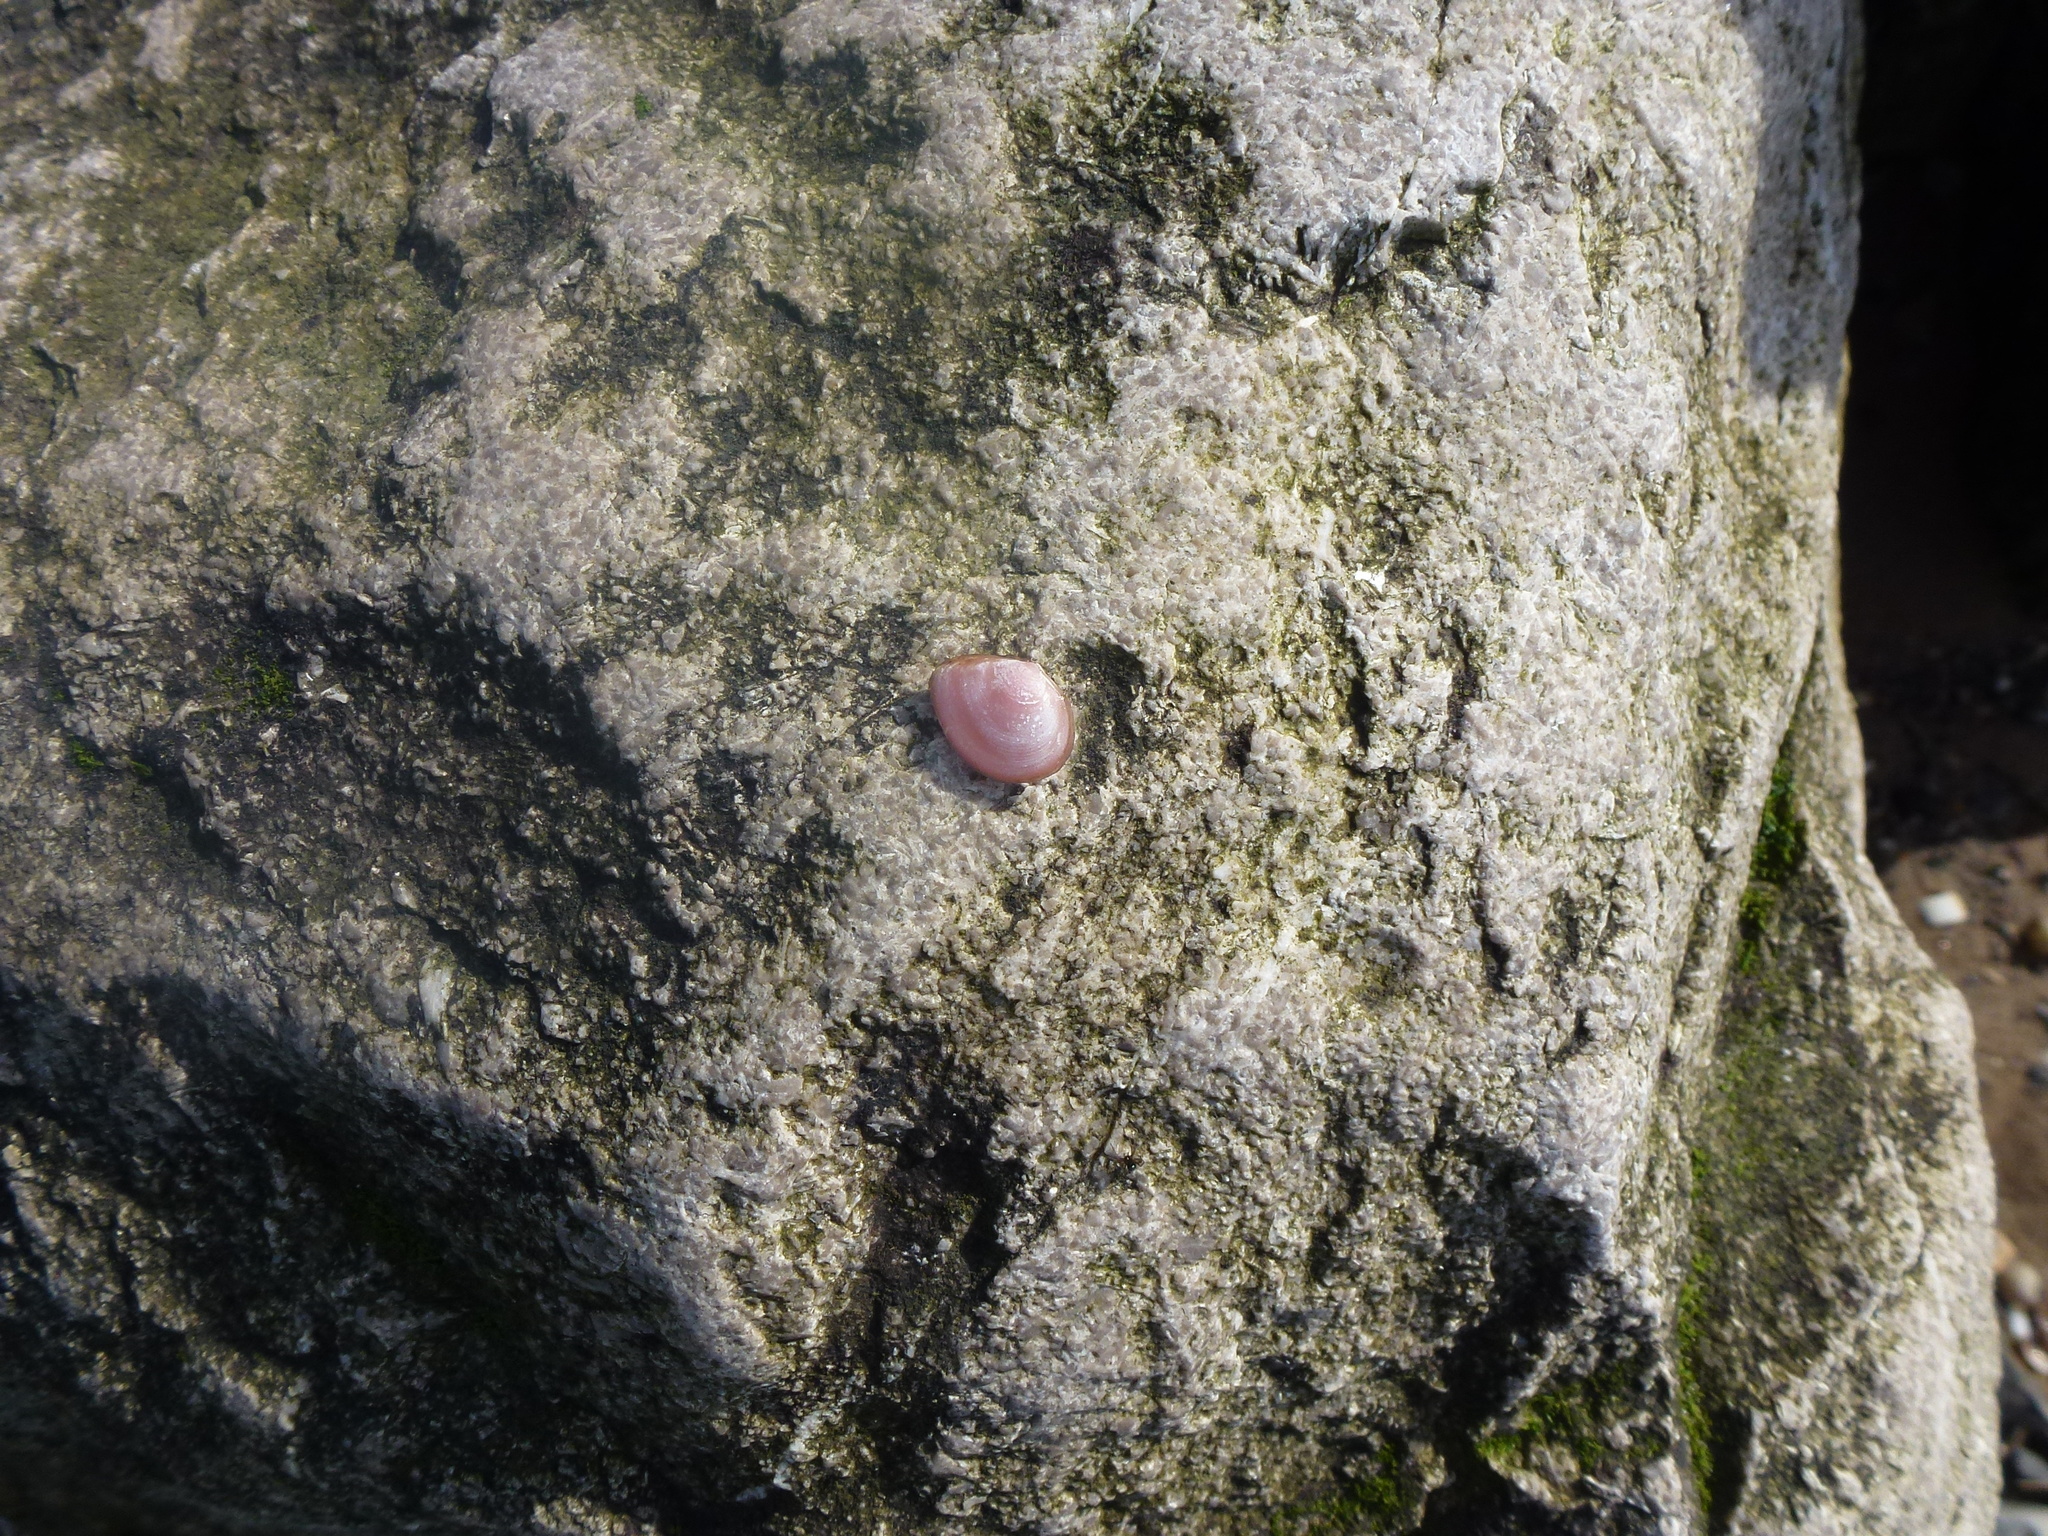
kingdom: Animalia
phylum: Mollusca
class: Bivalvia
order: Cardiida
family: Tellinidae
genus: Macoma
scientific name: Macoma balthica
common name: Baltic tellin
